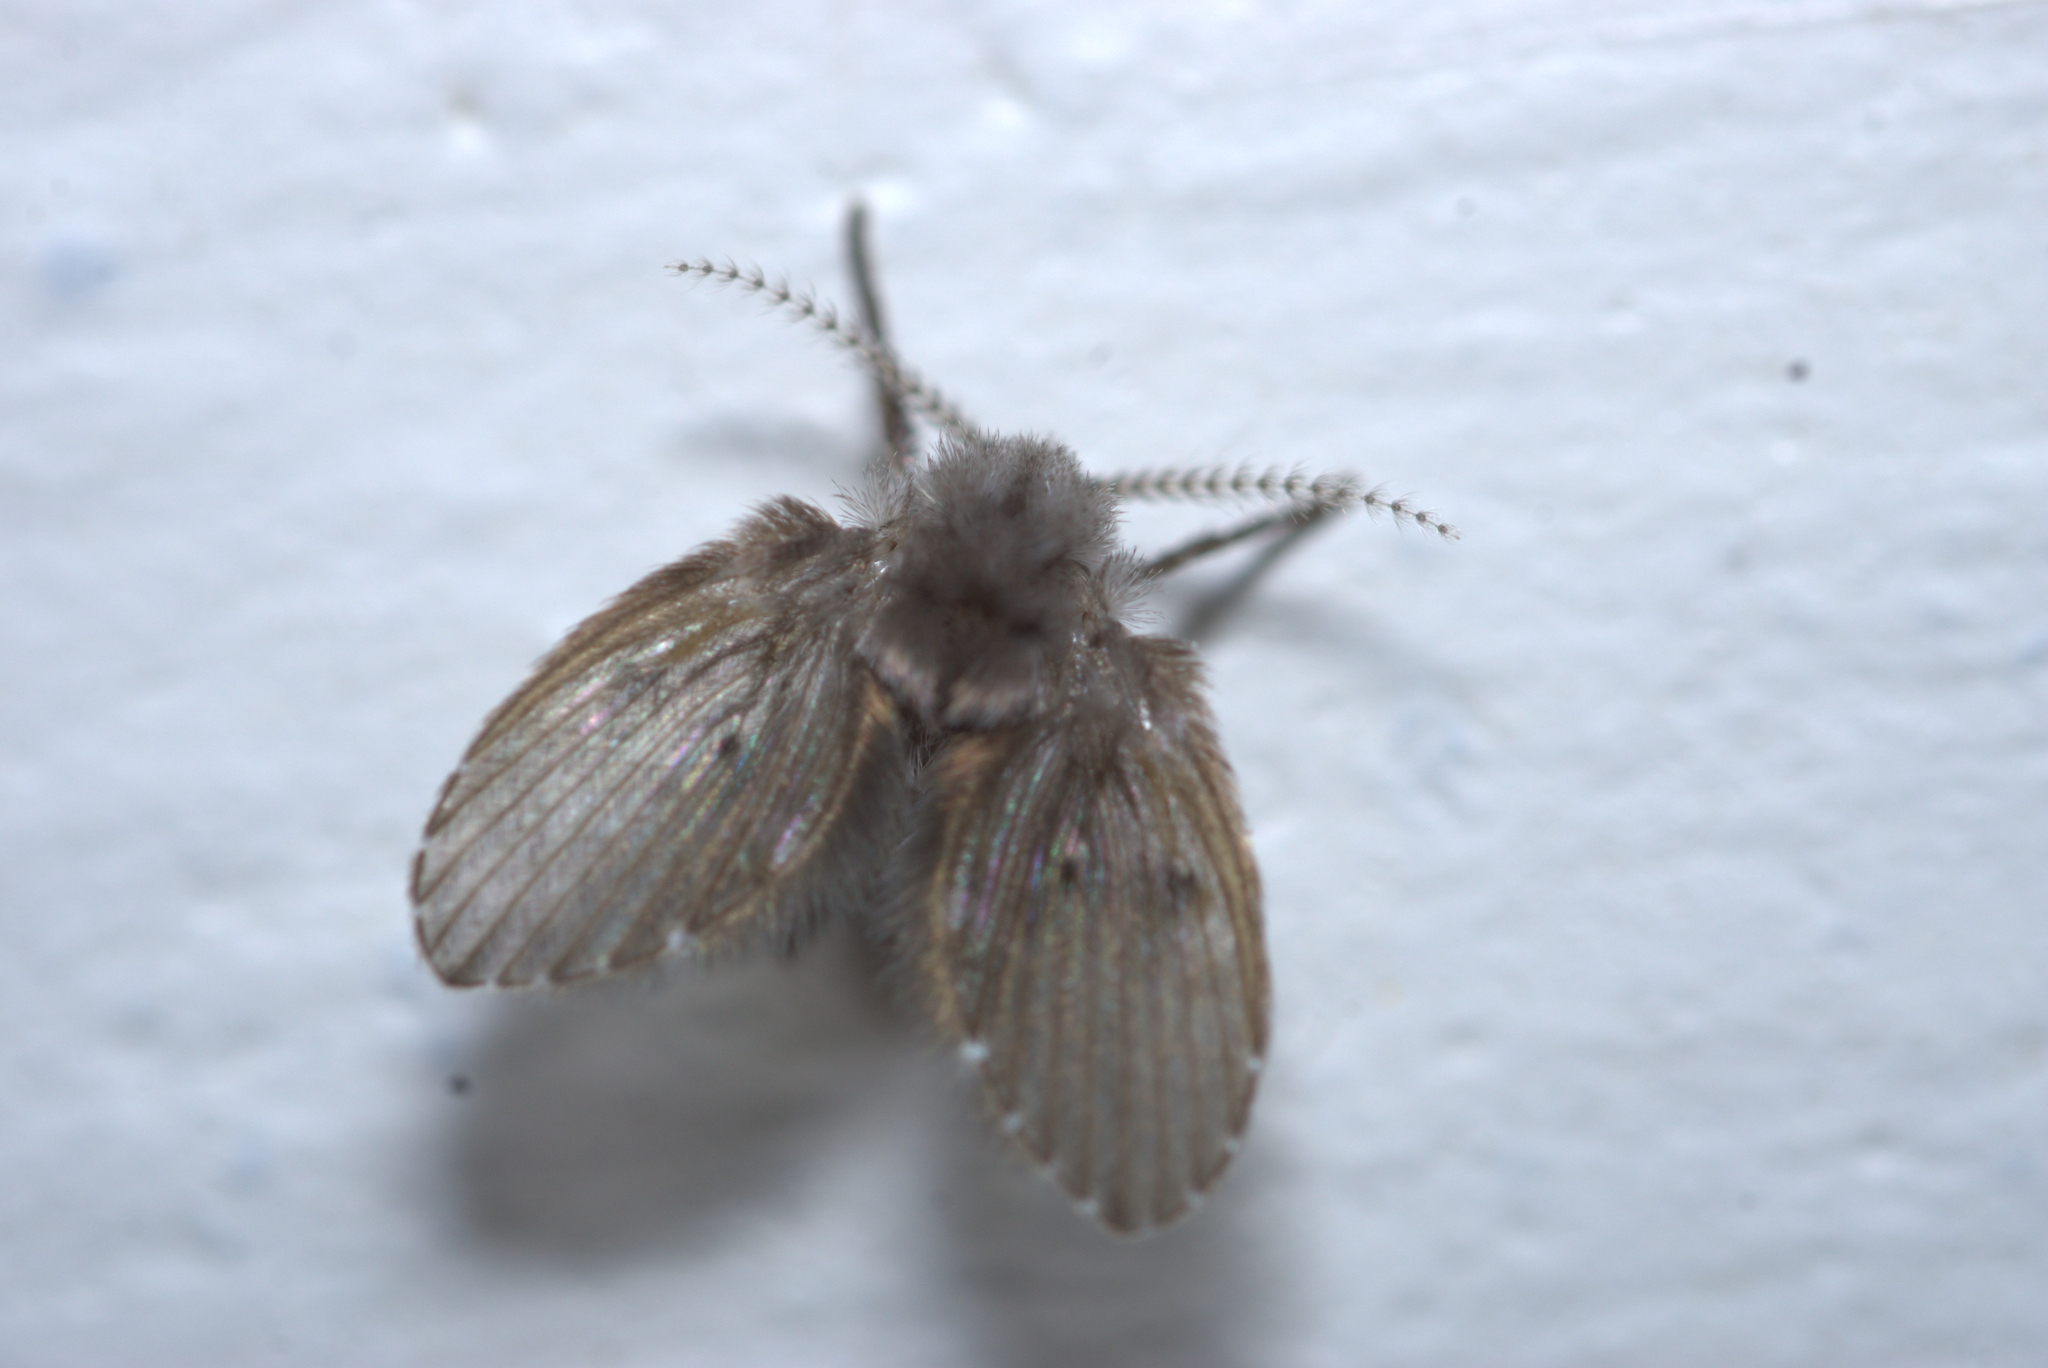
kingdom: Animalia
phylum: Arthropoda
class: Insecta
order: Diptera
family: Psychodidae
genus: Clogmia
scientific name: Clogmia albipunctatus
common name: White-spotted moth fly
